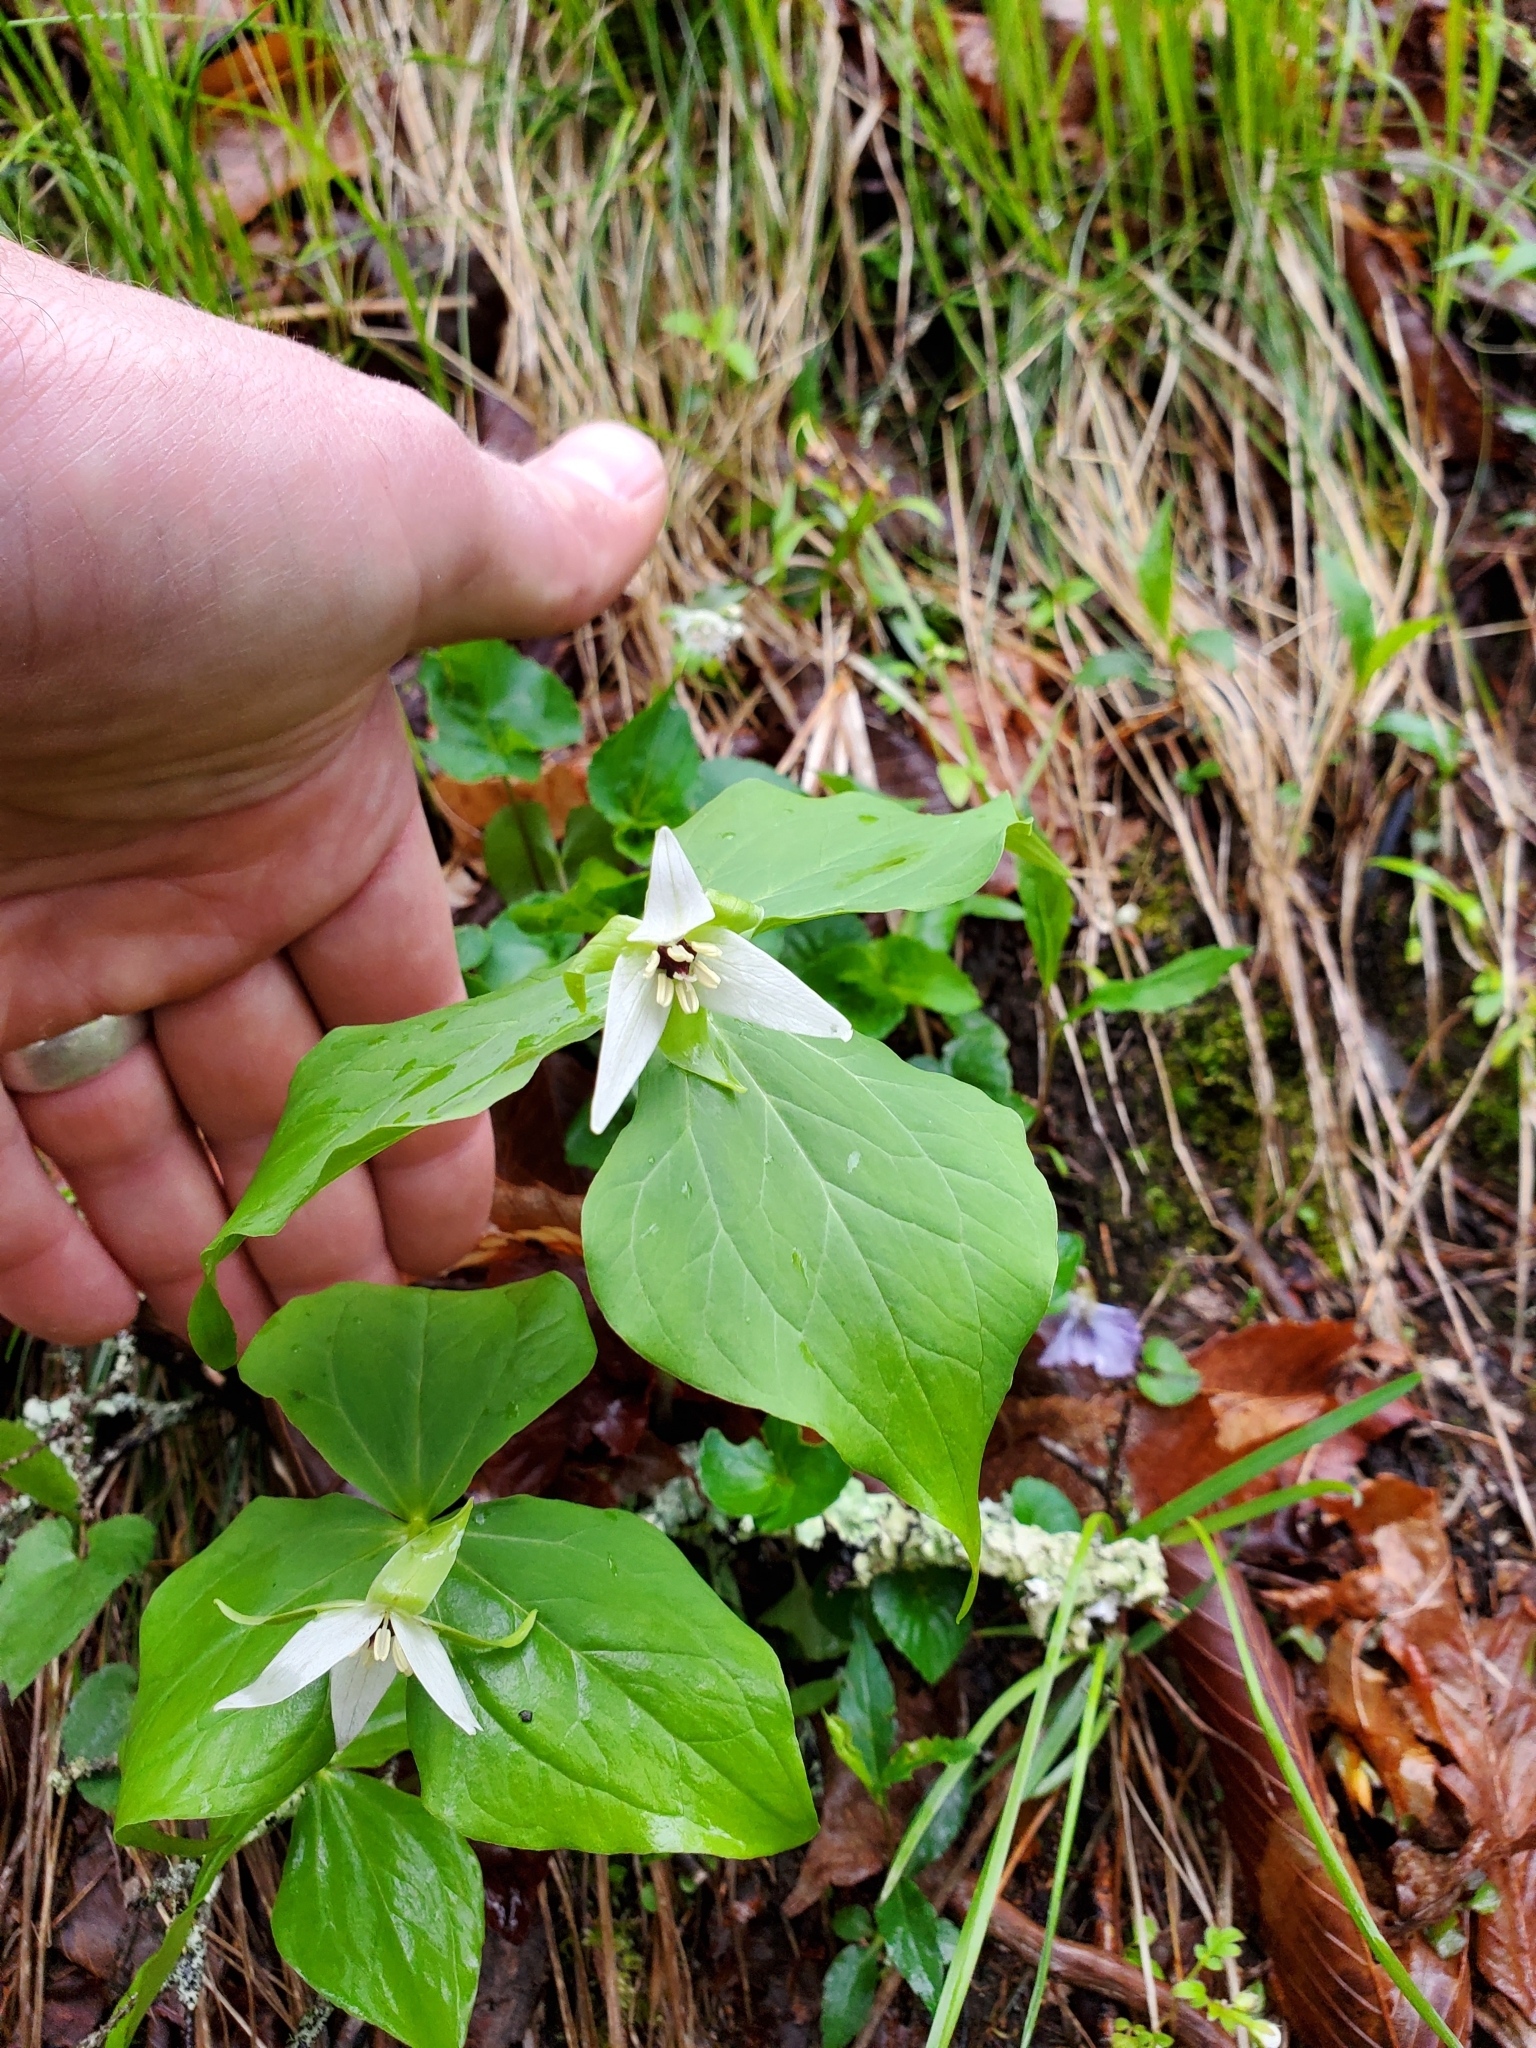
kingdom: Plantae
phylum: Tracheophyta
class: Liliopsida
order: Liliales
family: Melanthiaceae
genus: Trillium
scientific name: Trillium erectum
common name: Purple trillium
